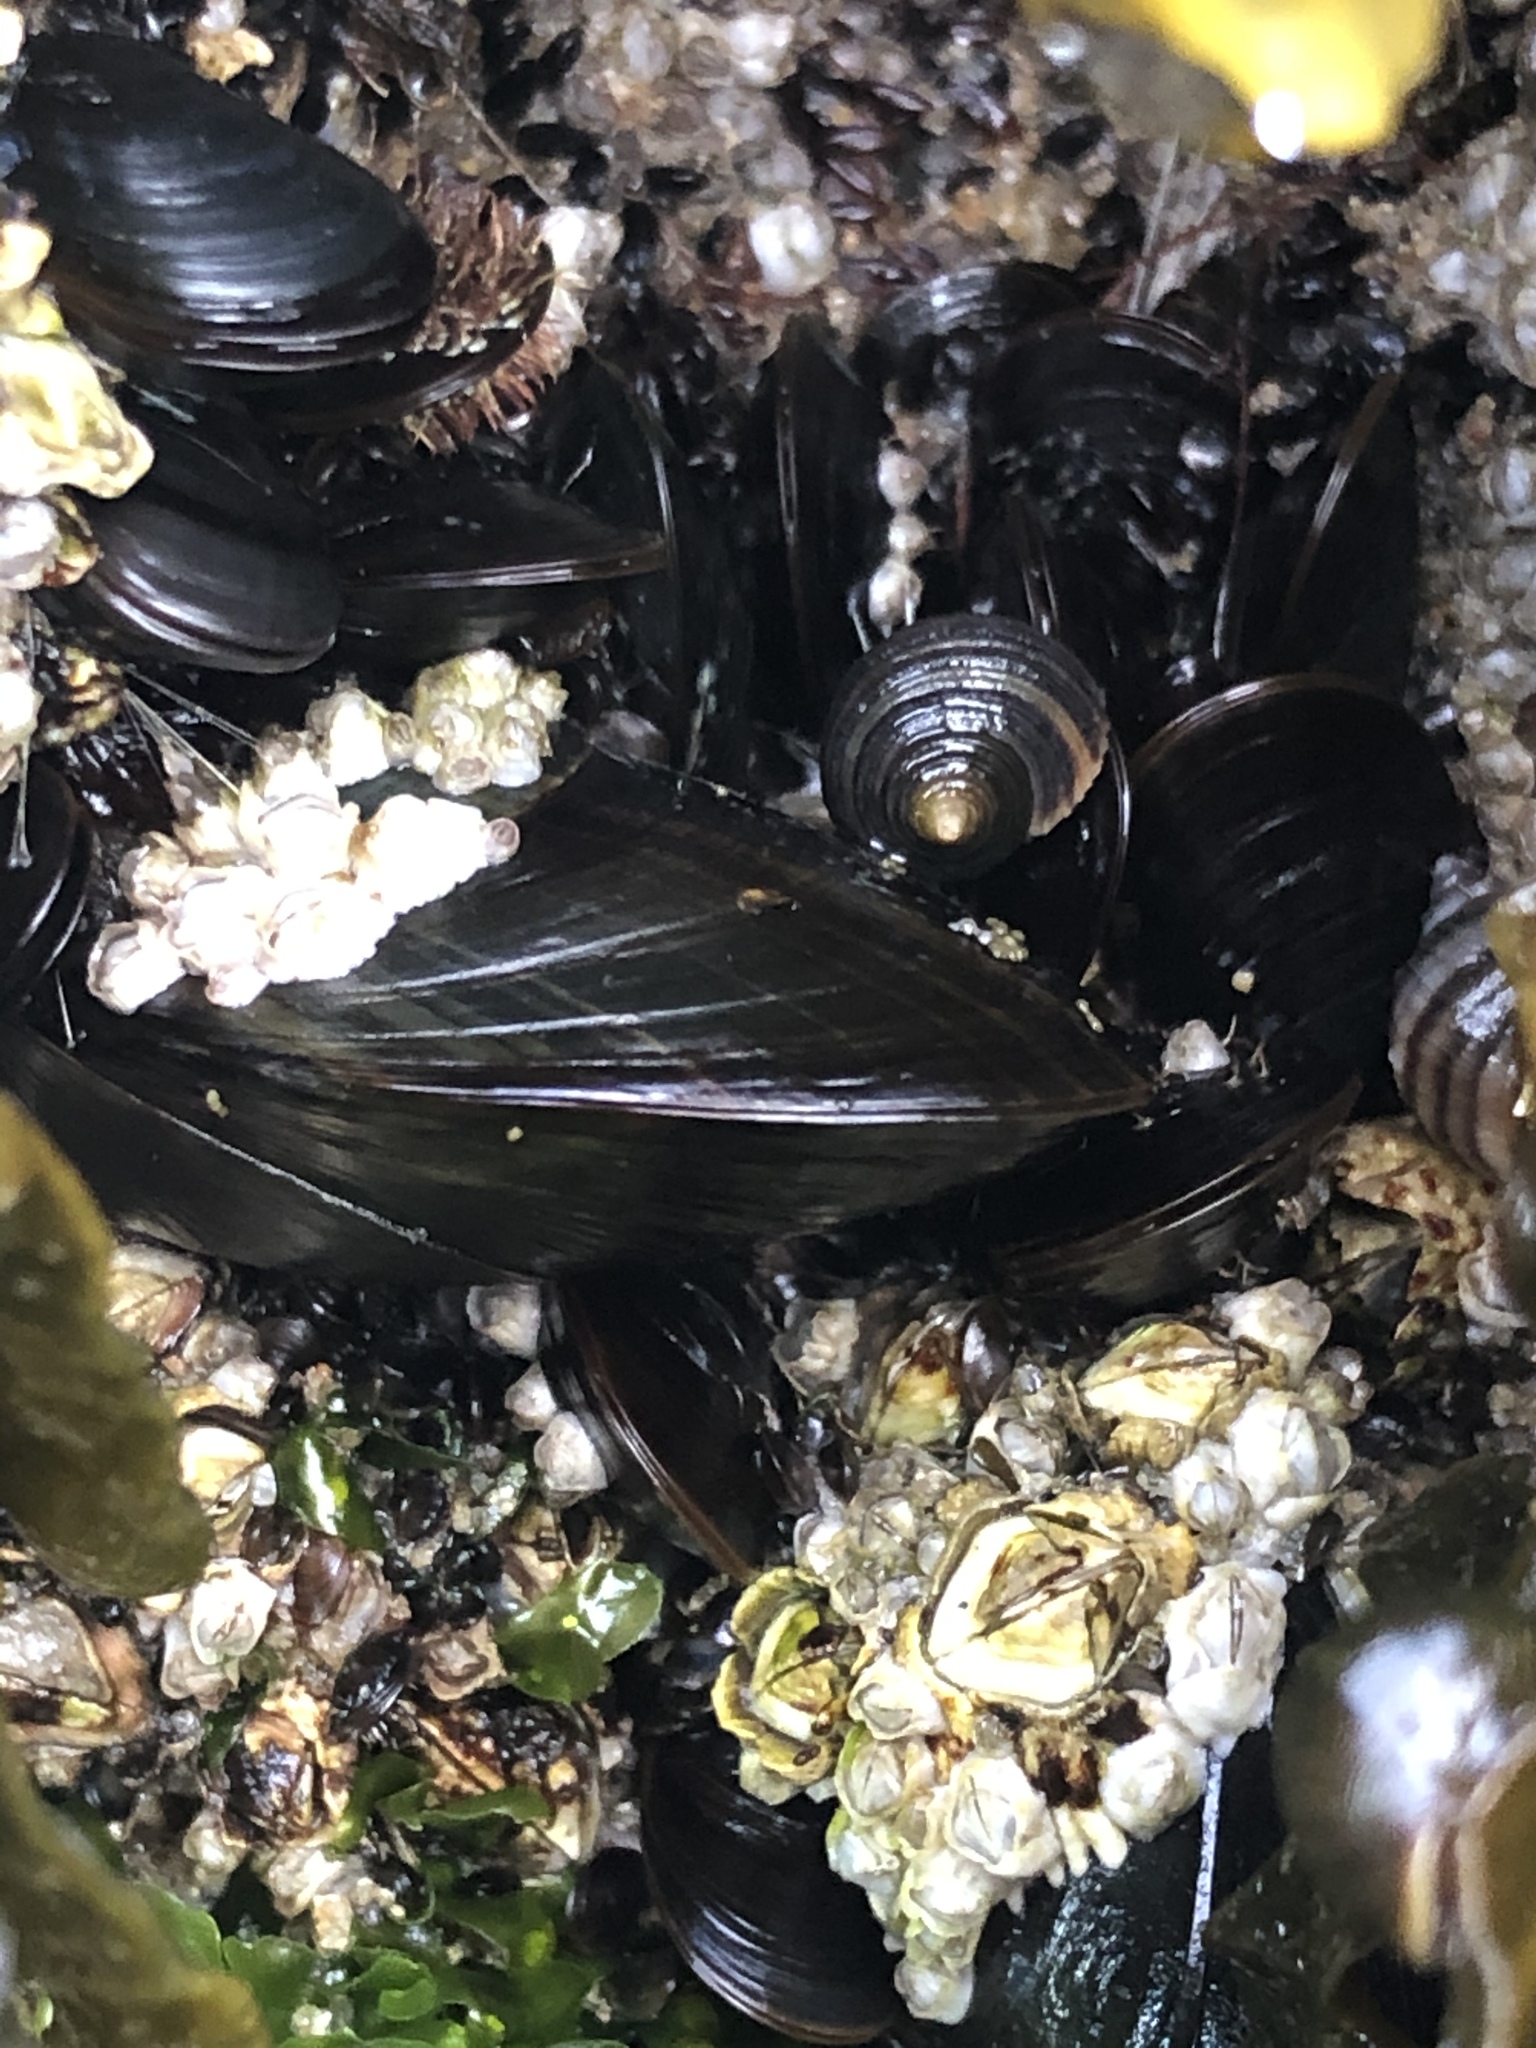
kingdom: Animalia
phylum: Mollusca
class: Bivalvia
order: Mytilida
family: Mytilidae
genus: Mytilus
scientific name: Mytilus edulis
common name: Blue mussel
